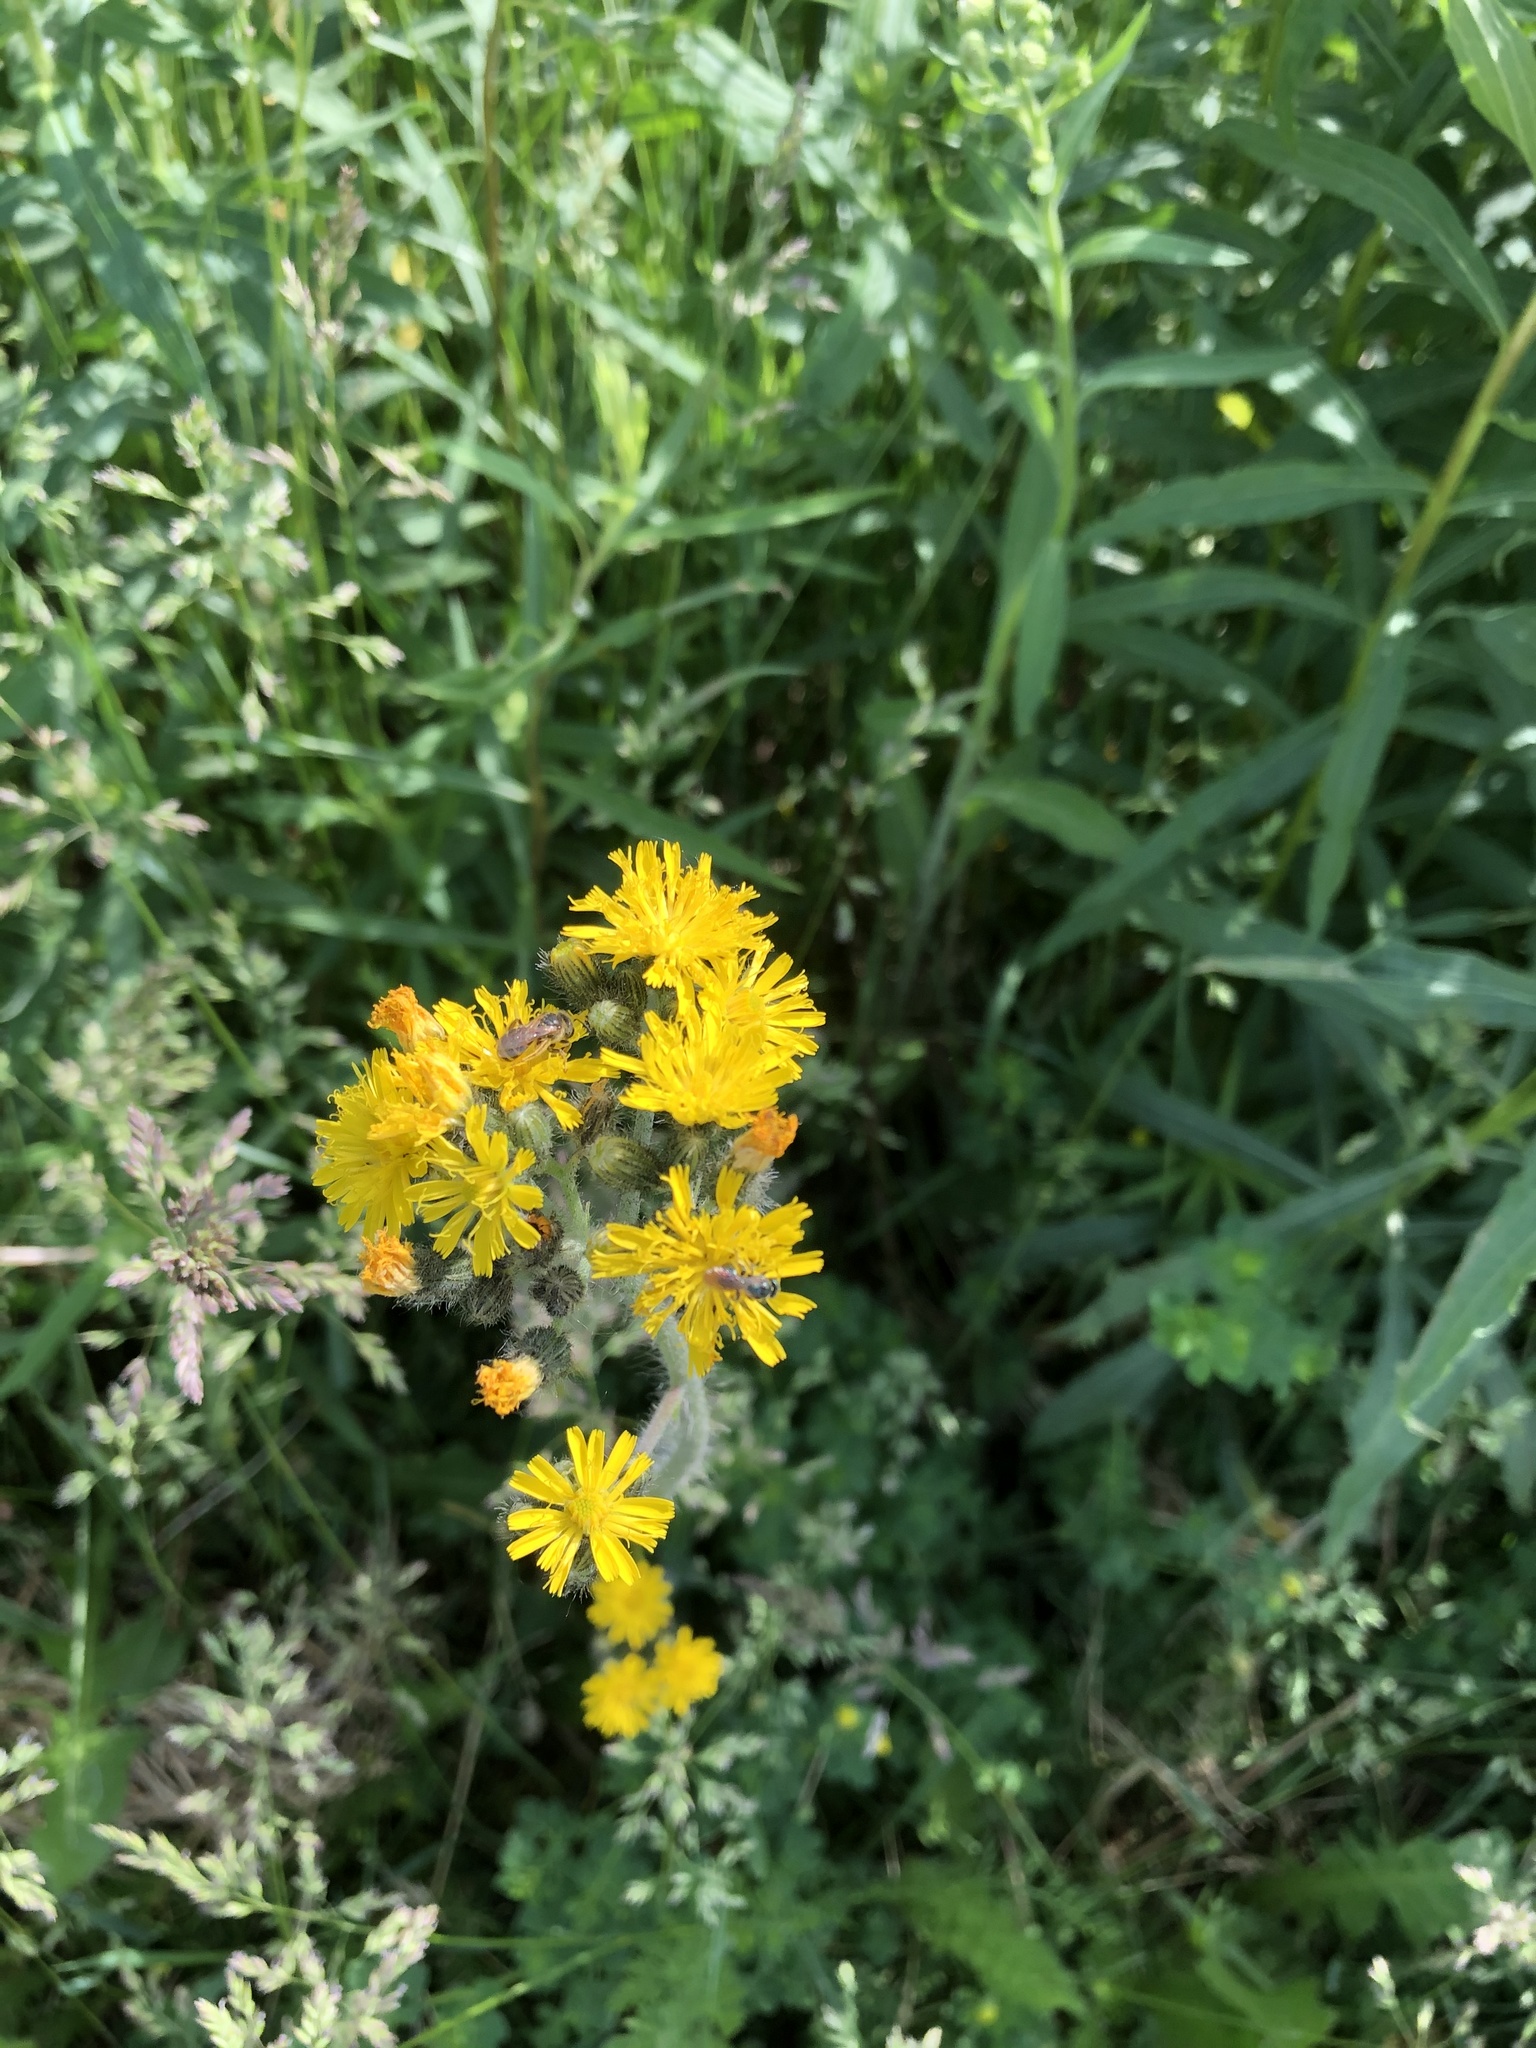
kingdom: Plantae
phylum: Tracheophyta
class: Magnoliopsida
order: Asterales
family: Asteraceae
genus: Pilosella
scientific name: Pilosella caespitosa
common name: Yellow fox-and-cubs
